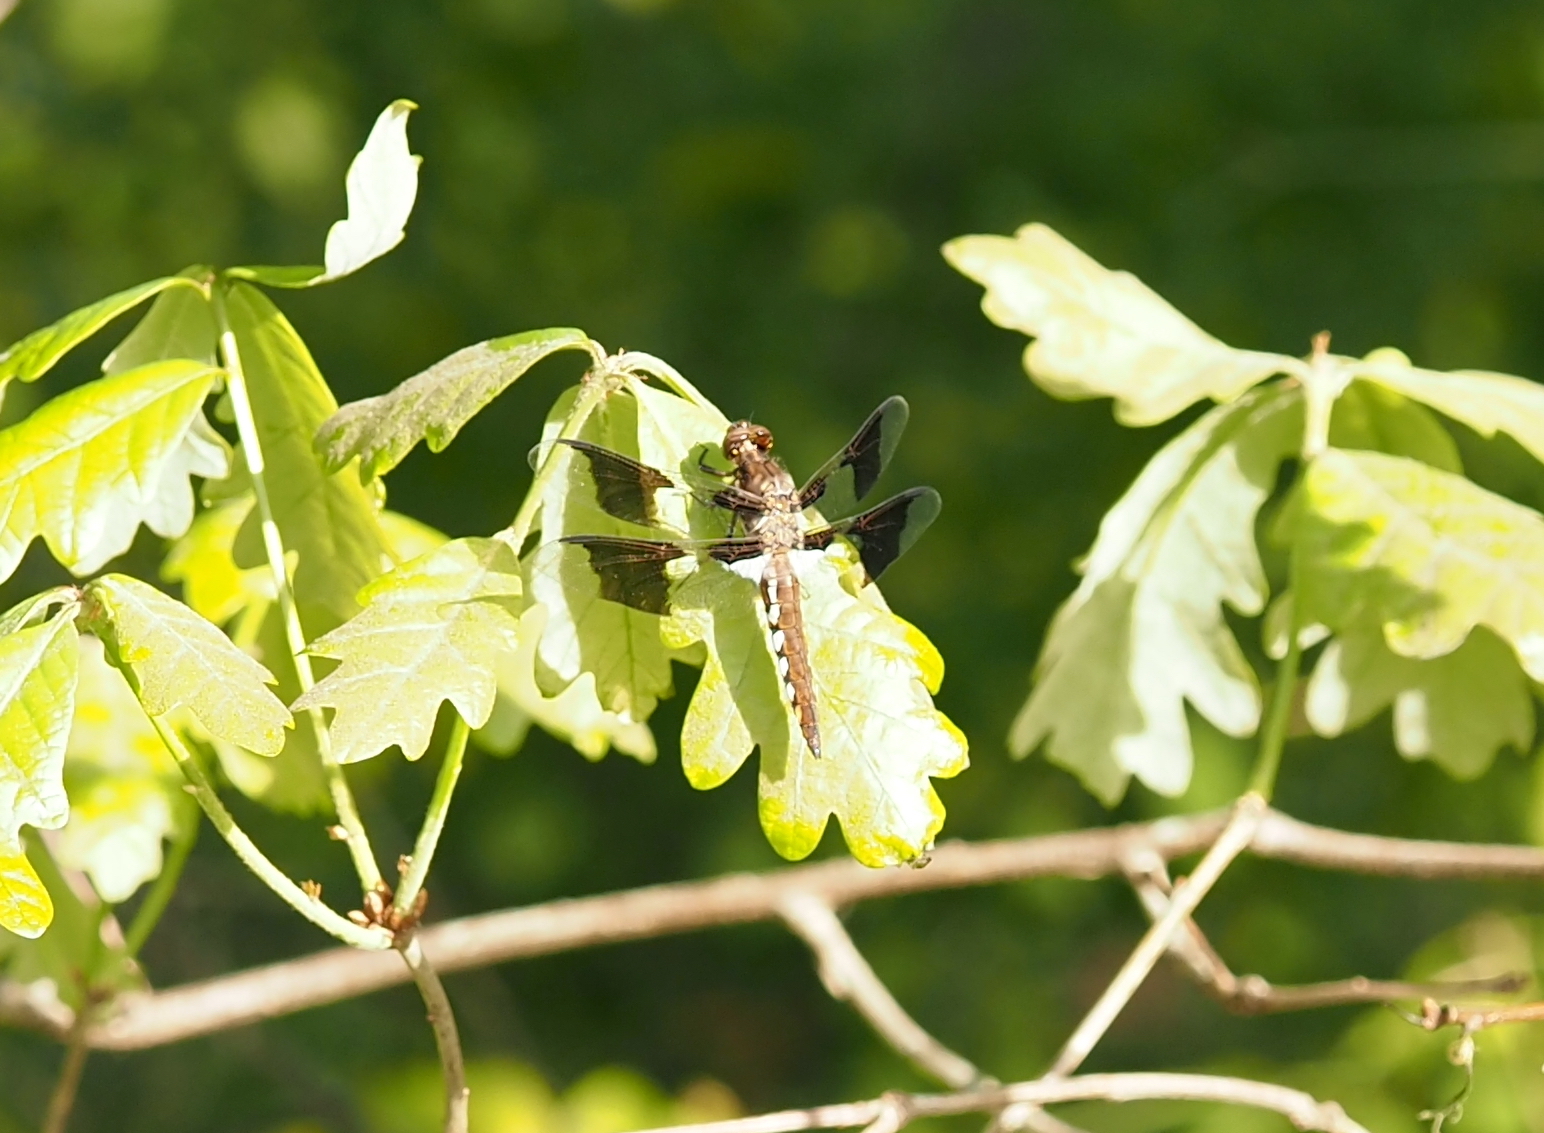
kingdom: Animalia
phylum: Arthropoda
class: Insecta
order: Odonata
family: Libellulidae
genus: Plathemis
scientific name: Plathemis lydia
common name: Common whitetail
